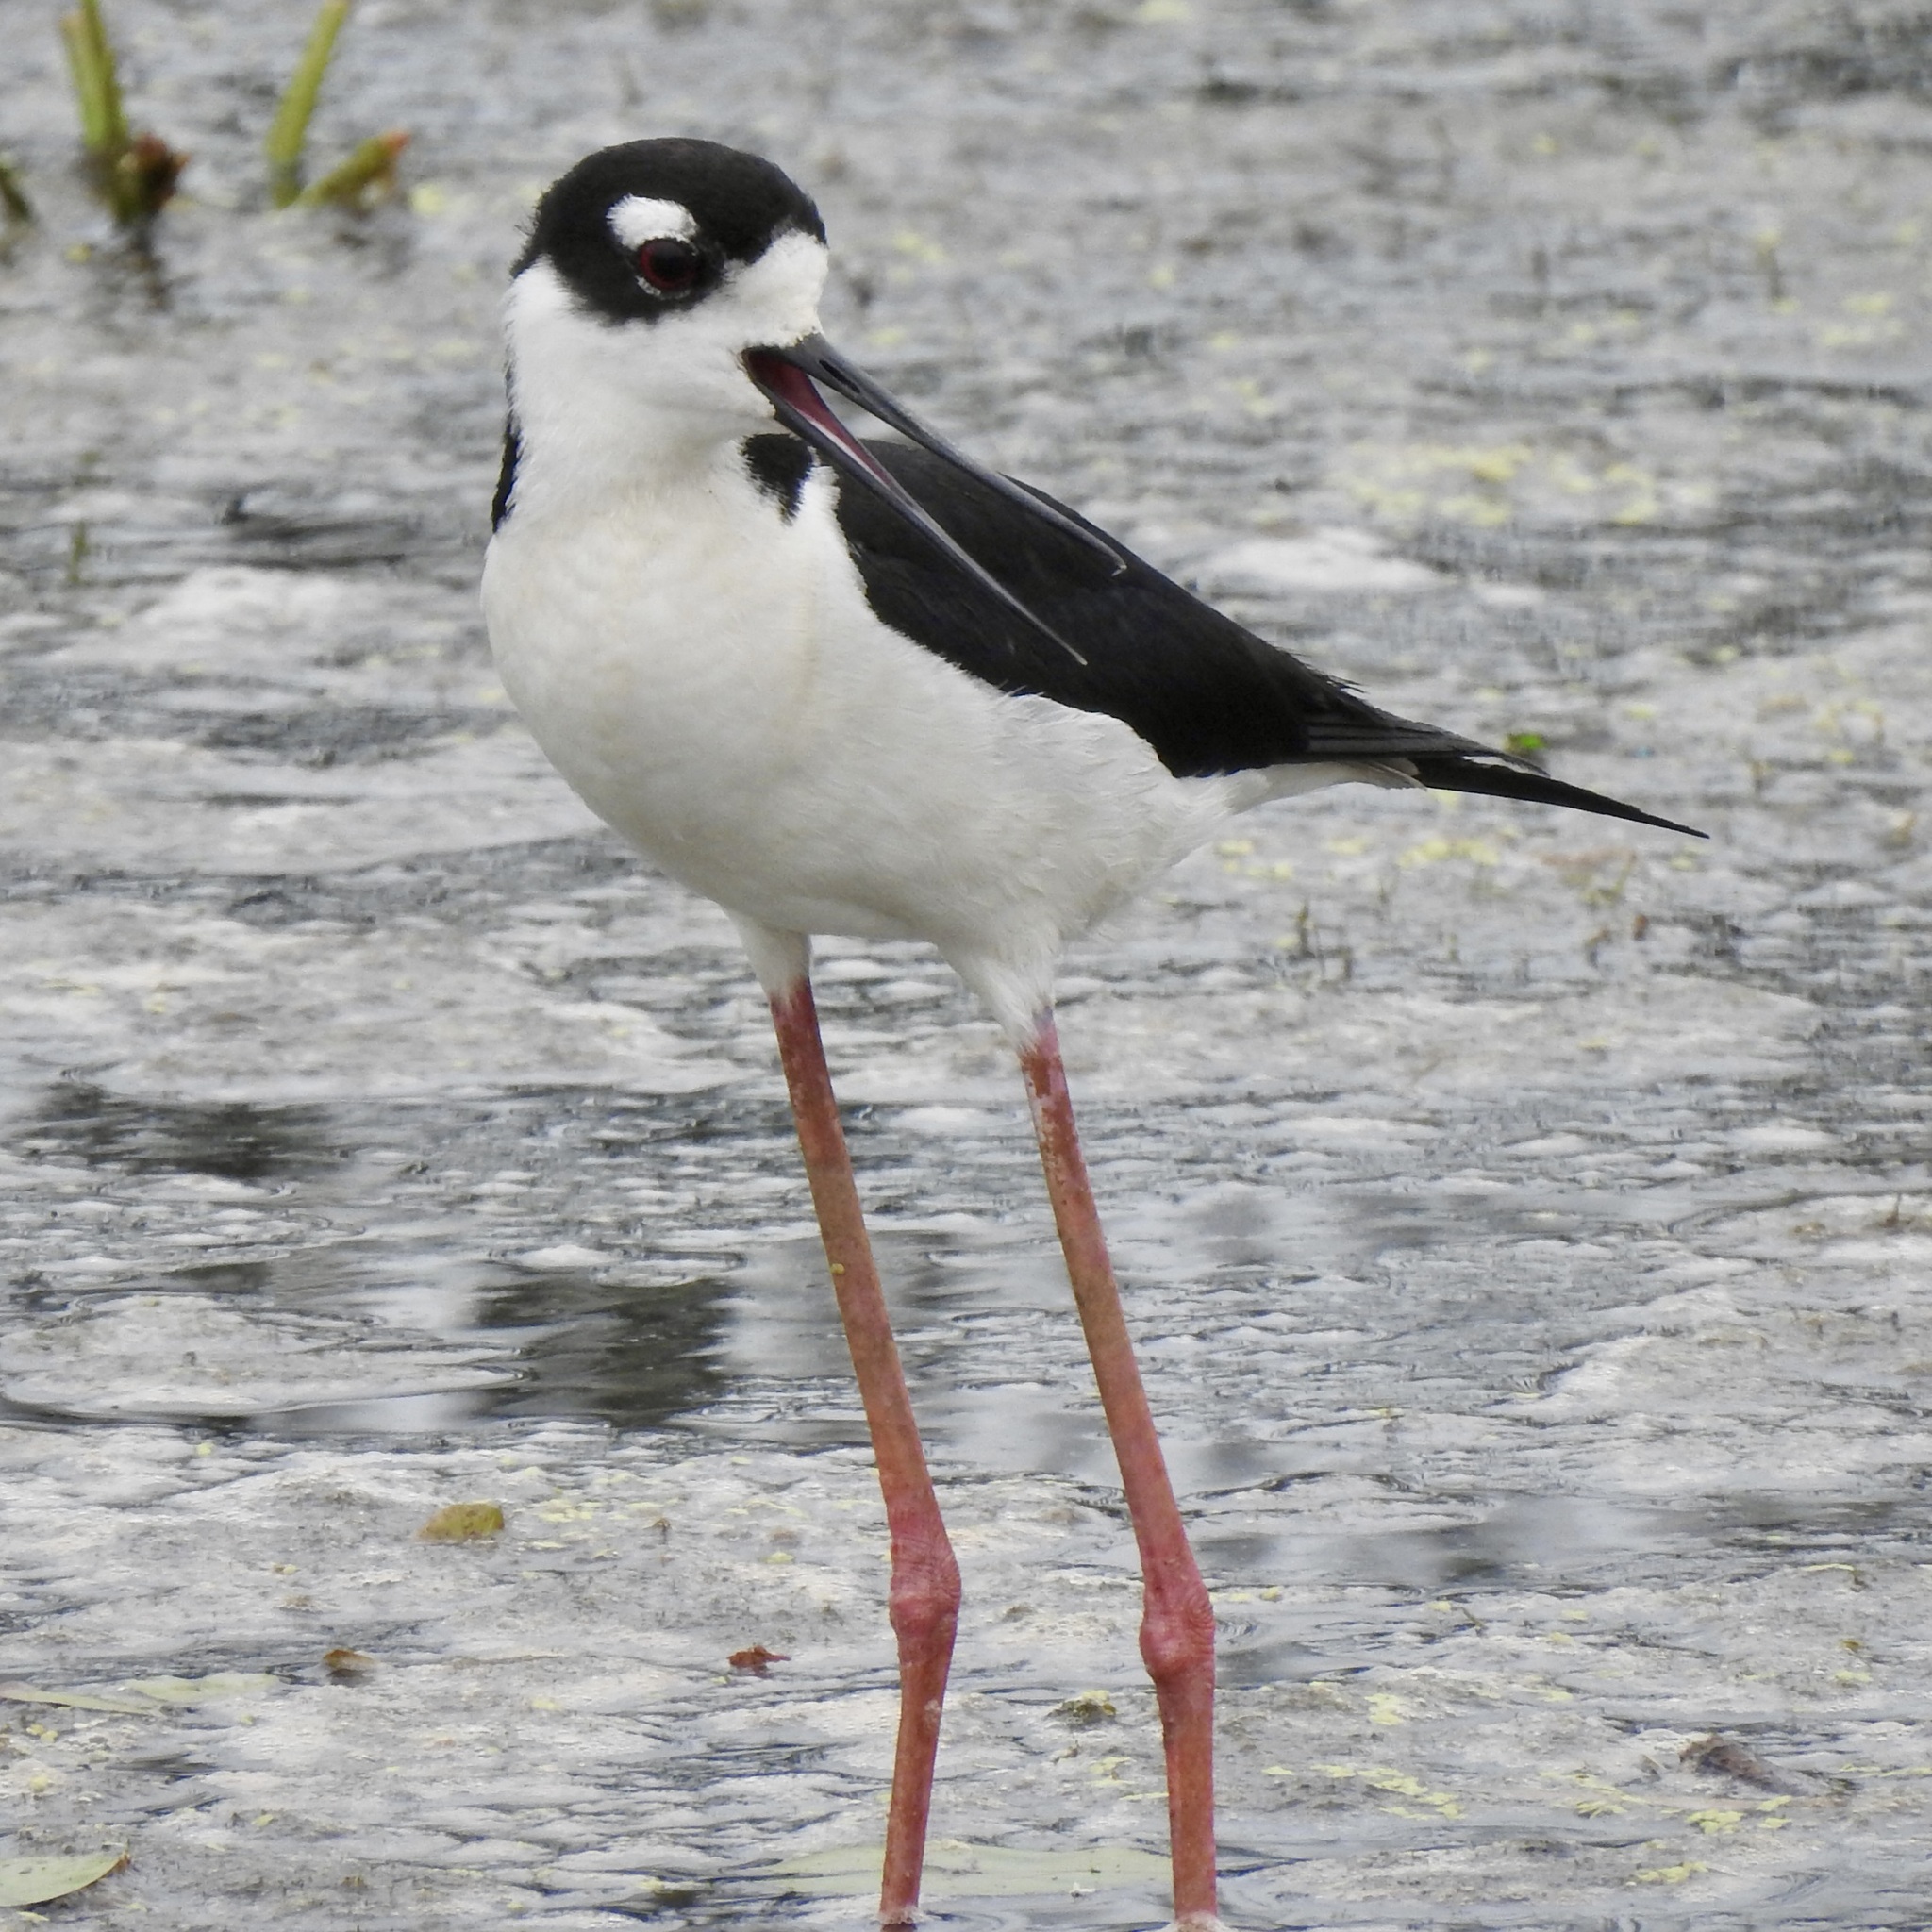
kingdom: Animalia
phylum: Chordata
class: Aves
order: Charadriiformes
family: Recurvirostridae
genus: Himantopus
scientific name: Himantopus mexicanus
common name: Black-necked stilt
